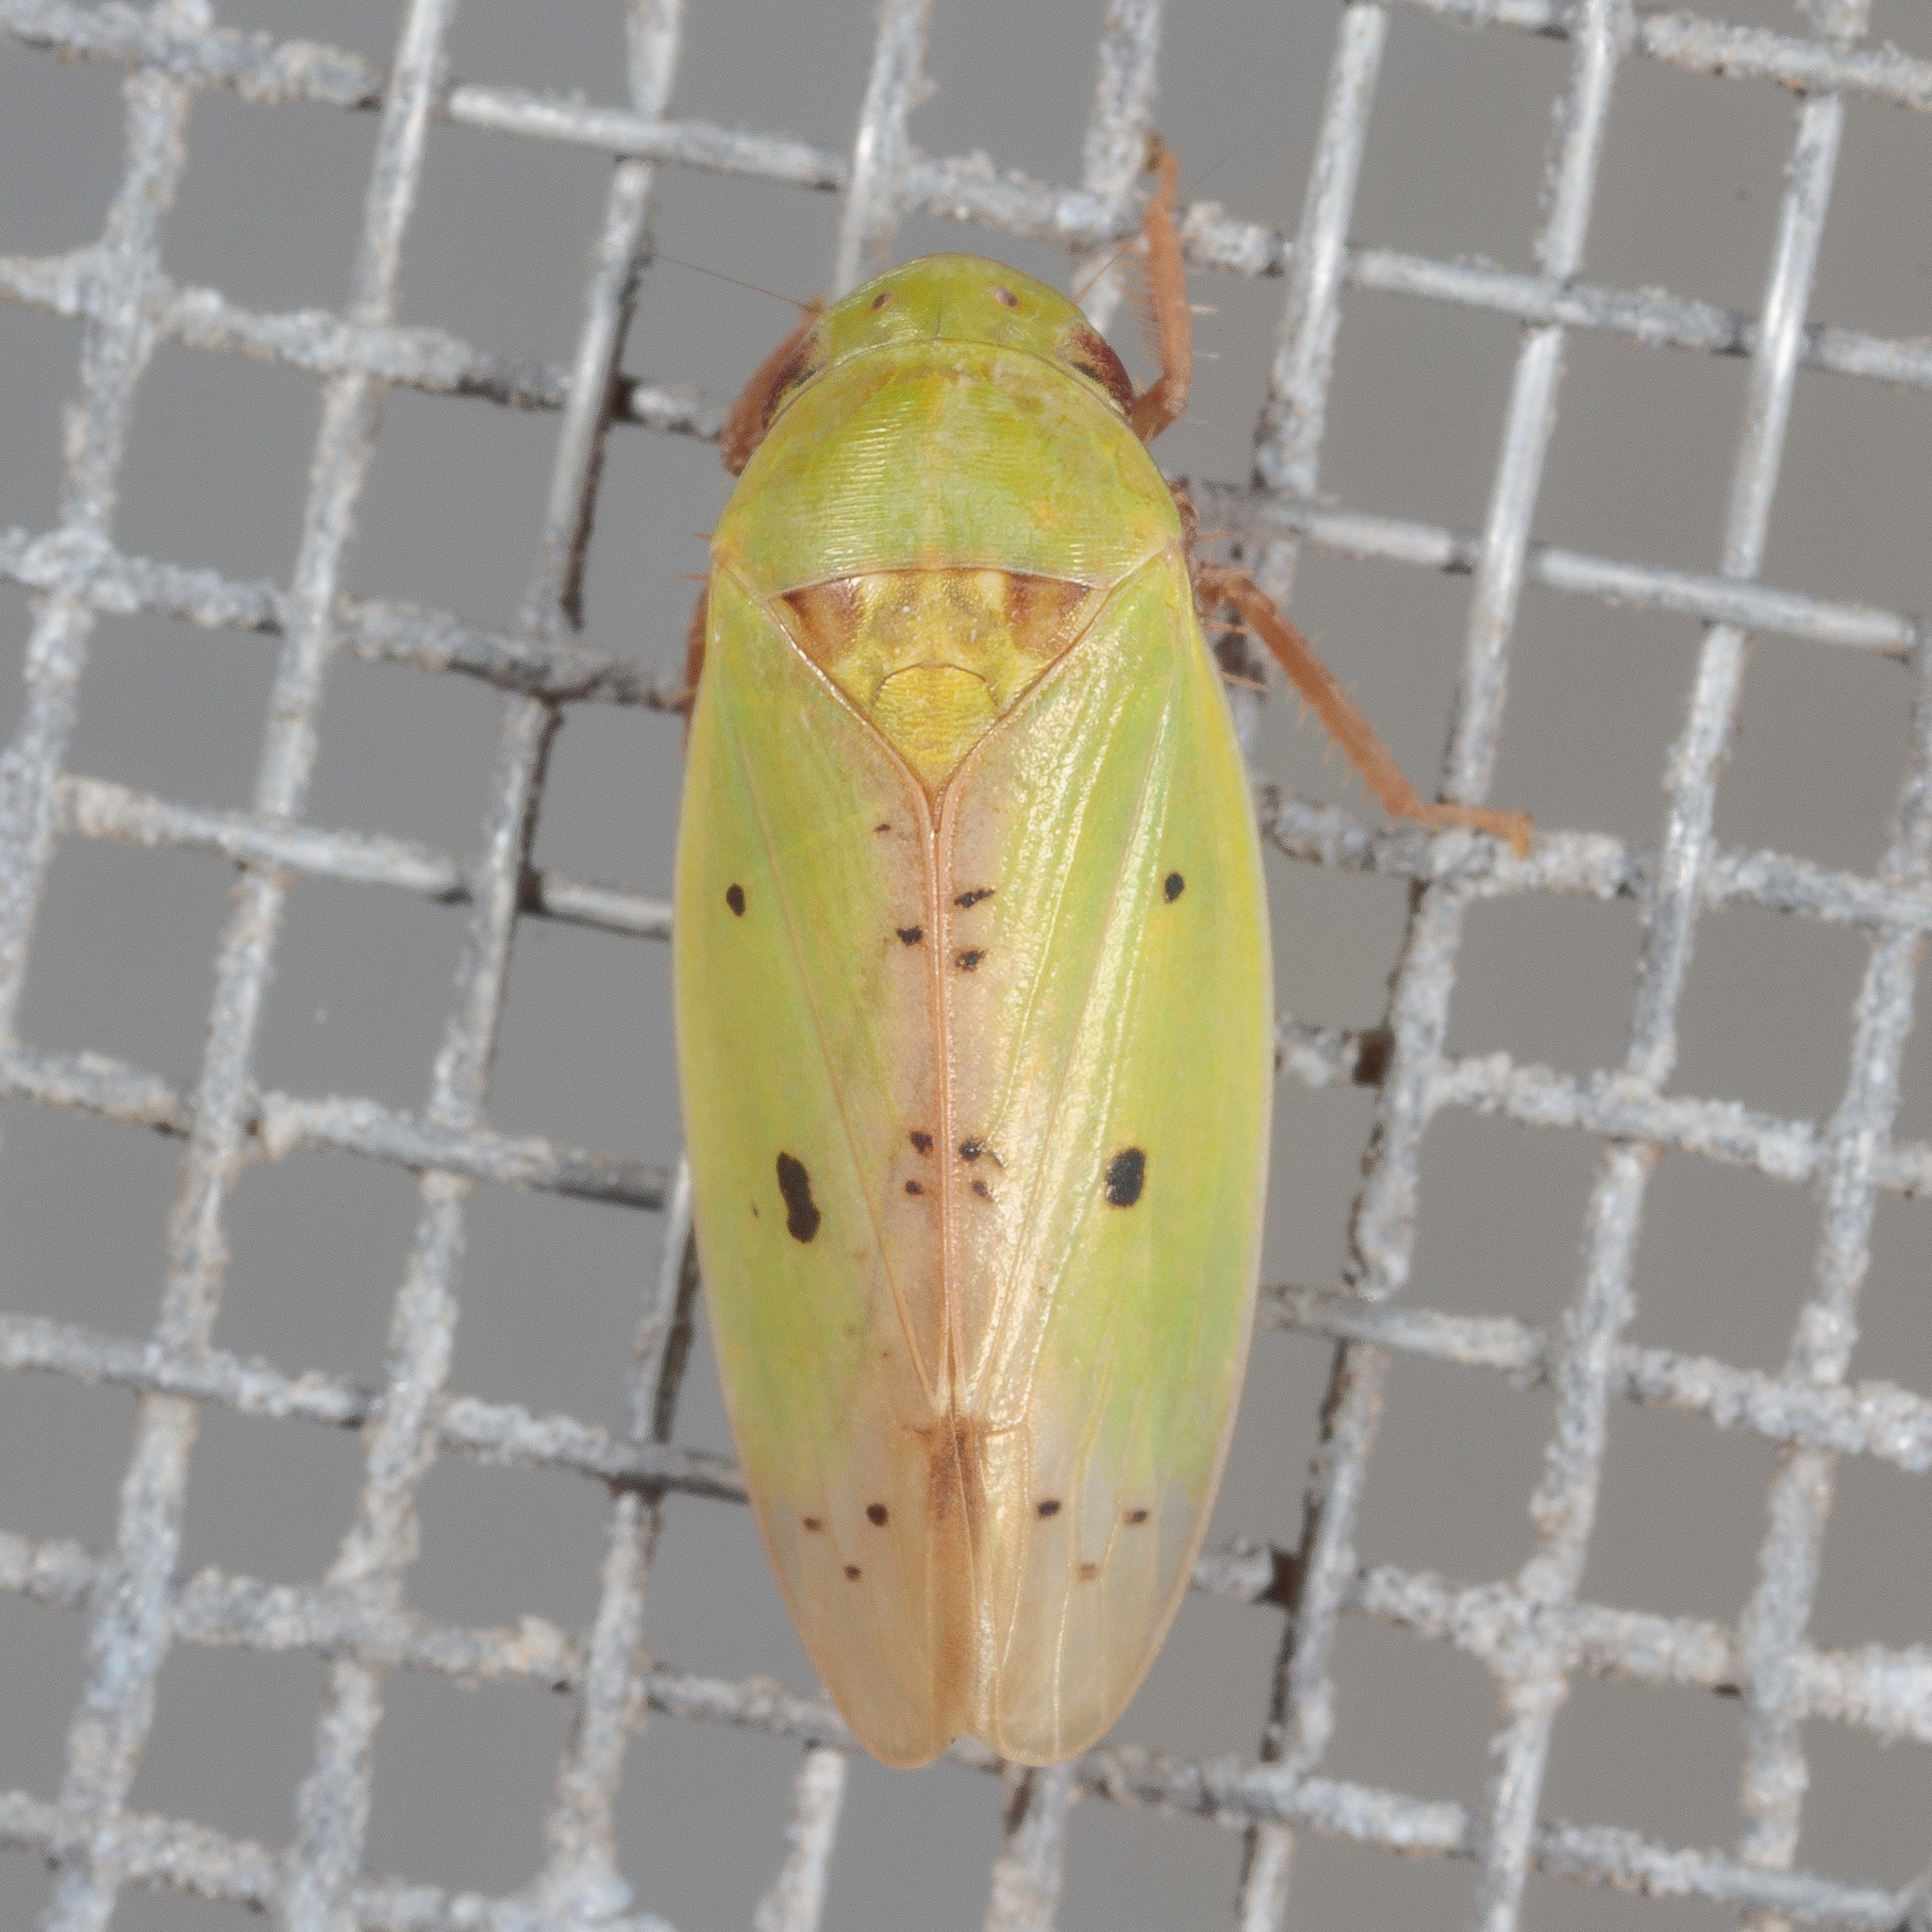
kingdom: Animalia
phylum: Arthropoda
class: Insecta
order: Hemiptera
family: Cicadellidae
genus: Ponana
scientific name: Ponana
